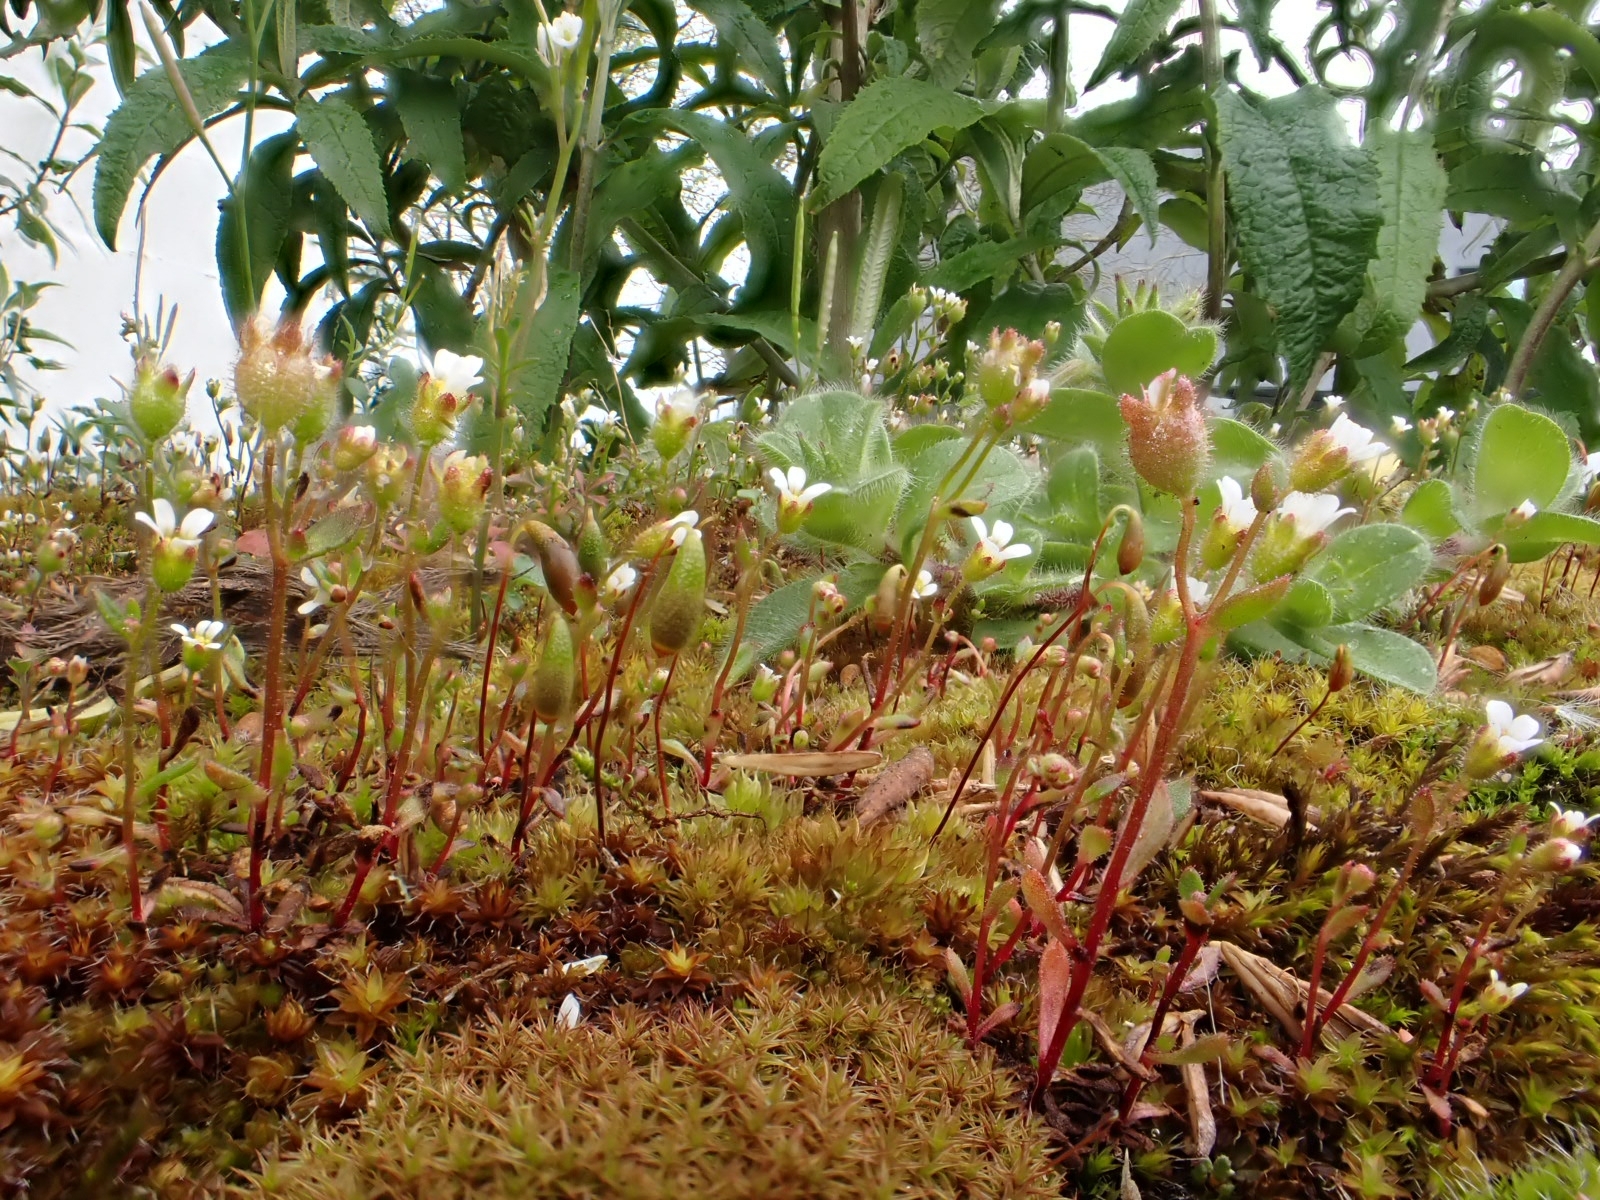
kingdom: Plantae
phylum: Tracheophyta
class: Magnoliopsida
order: Saxifragales
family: Saxifragaceae
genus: Saxifraga
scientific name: Saxifraga tridactylites
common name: Rue-leaved saxifrage
